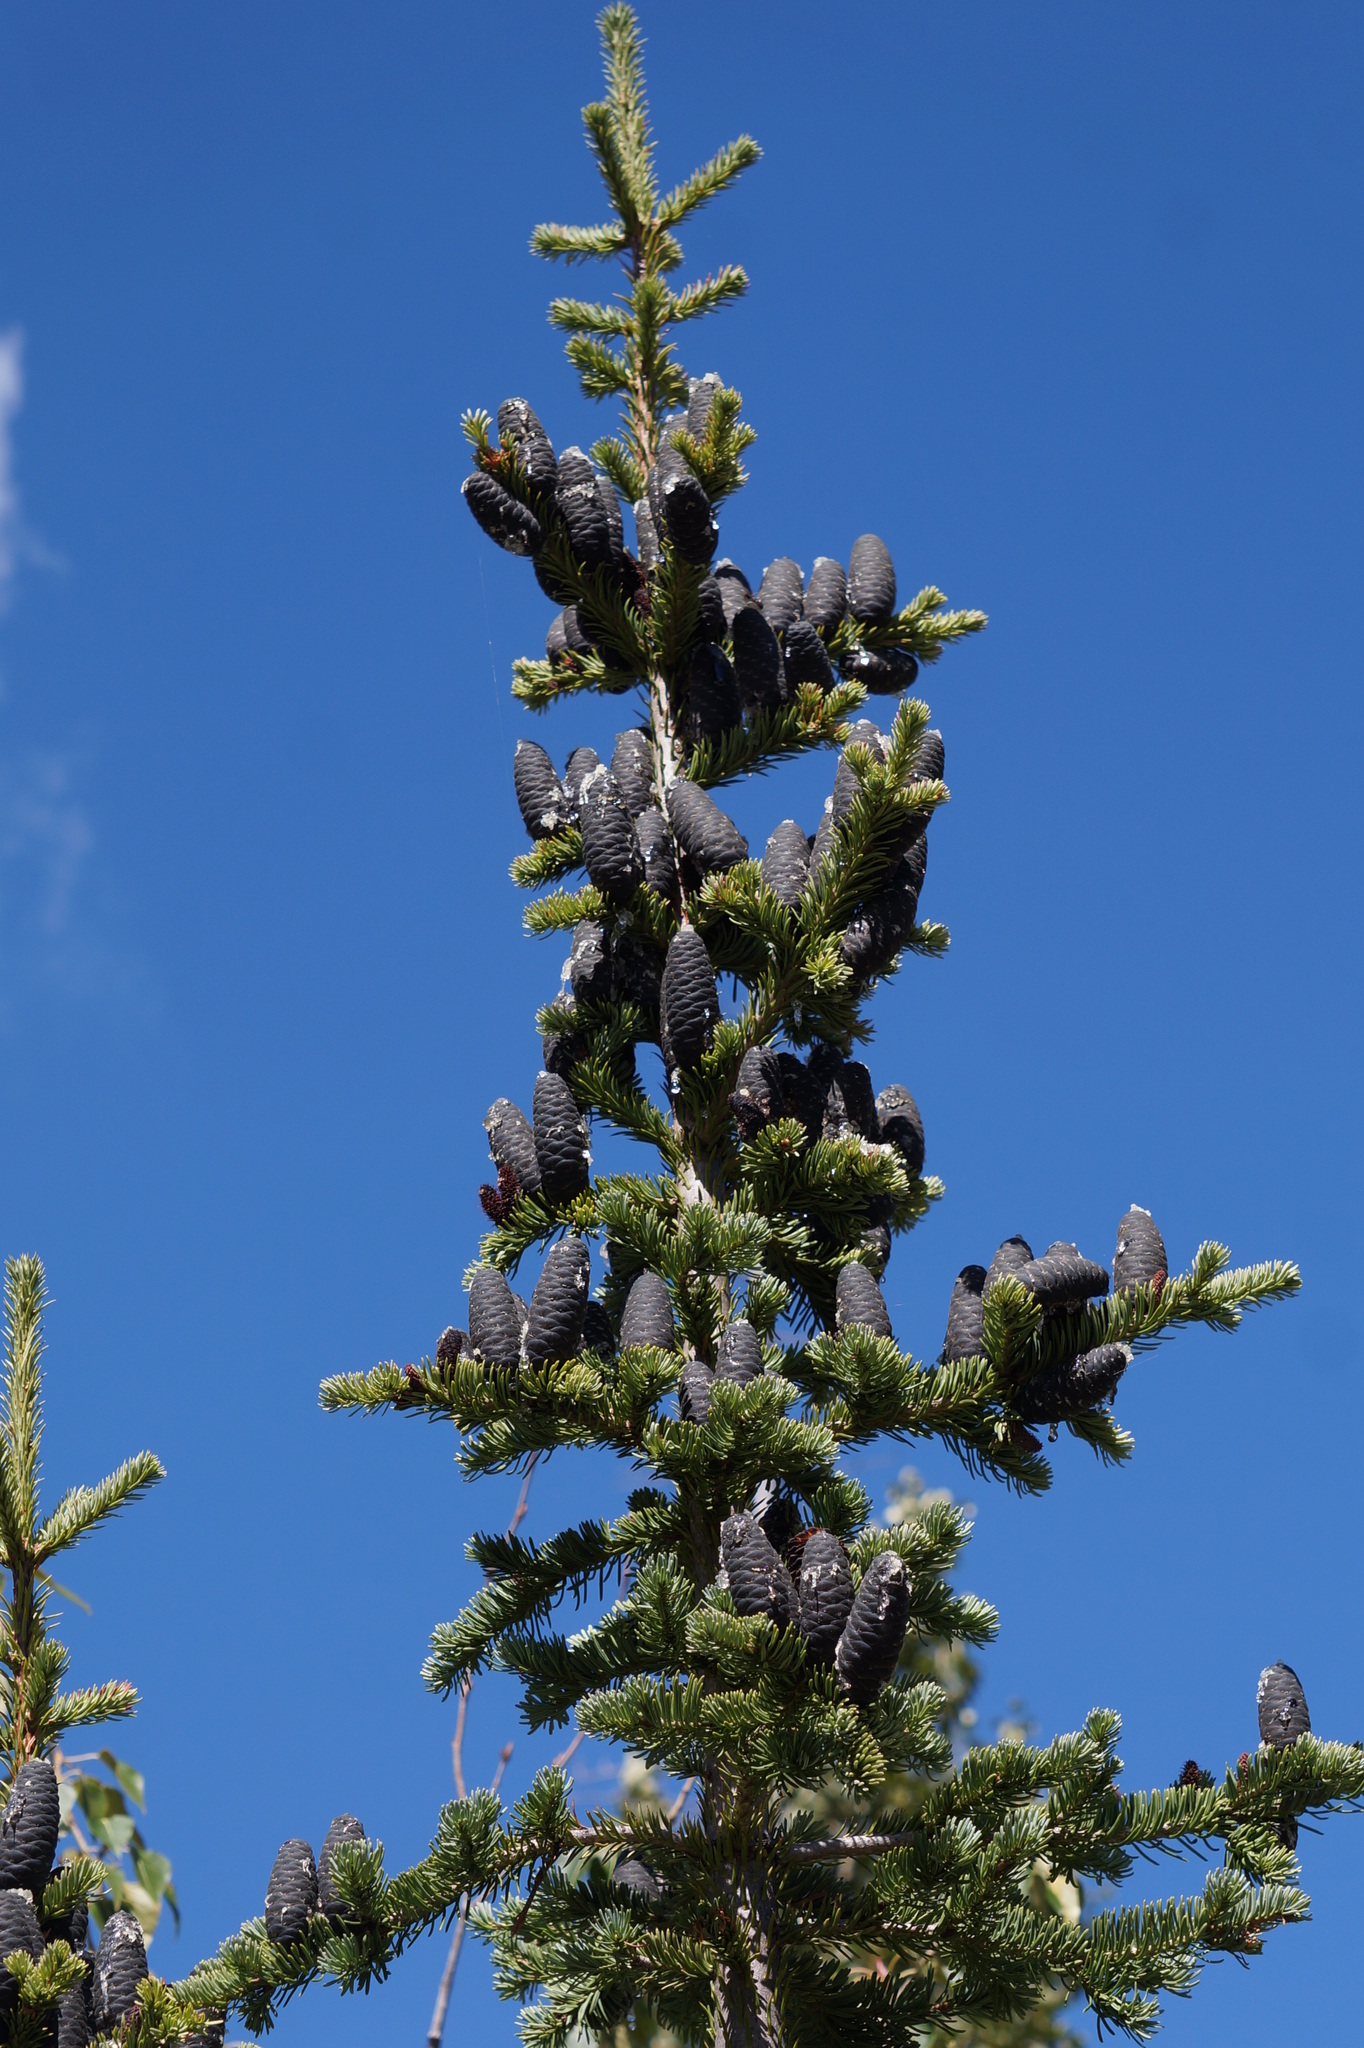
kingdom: Plantae
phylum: Tracheophyta
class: Pinopsida
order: Pinales
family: Pinaceae
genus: Abies
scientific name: Abies lasiocarpa
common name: Subalpine fir
